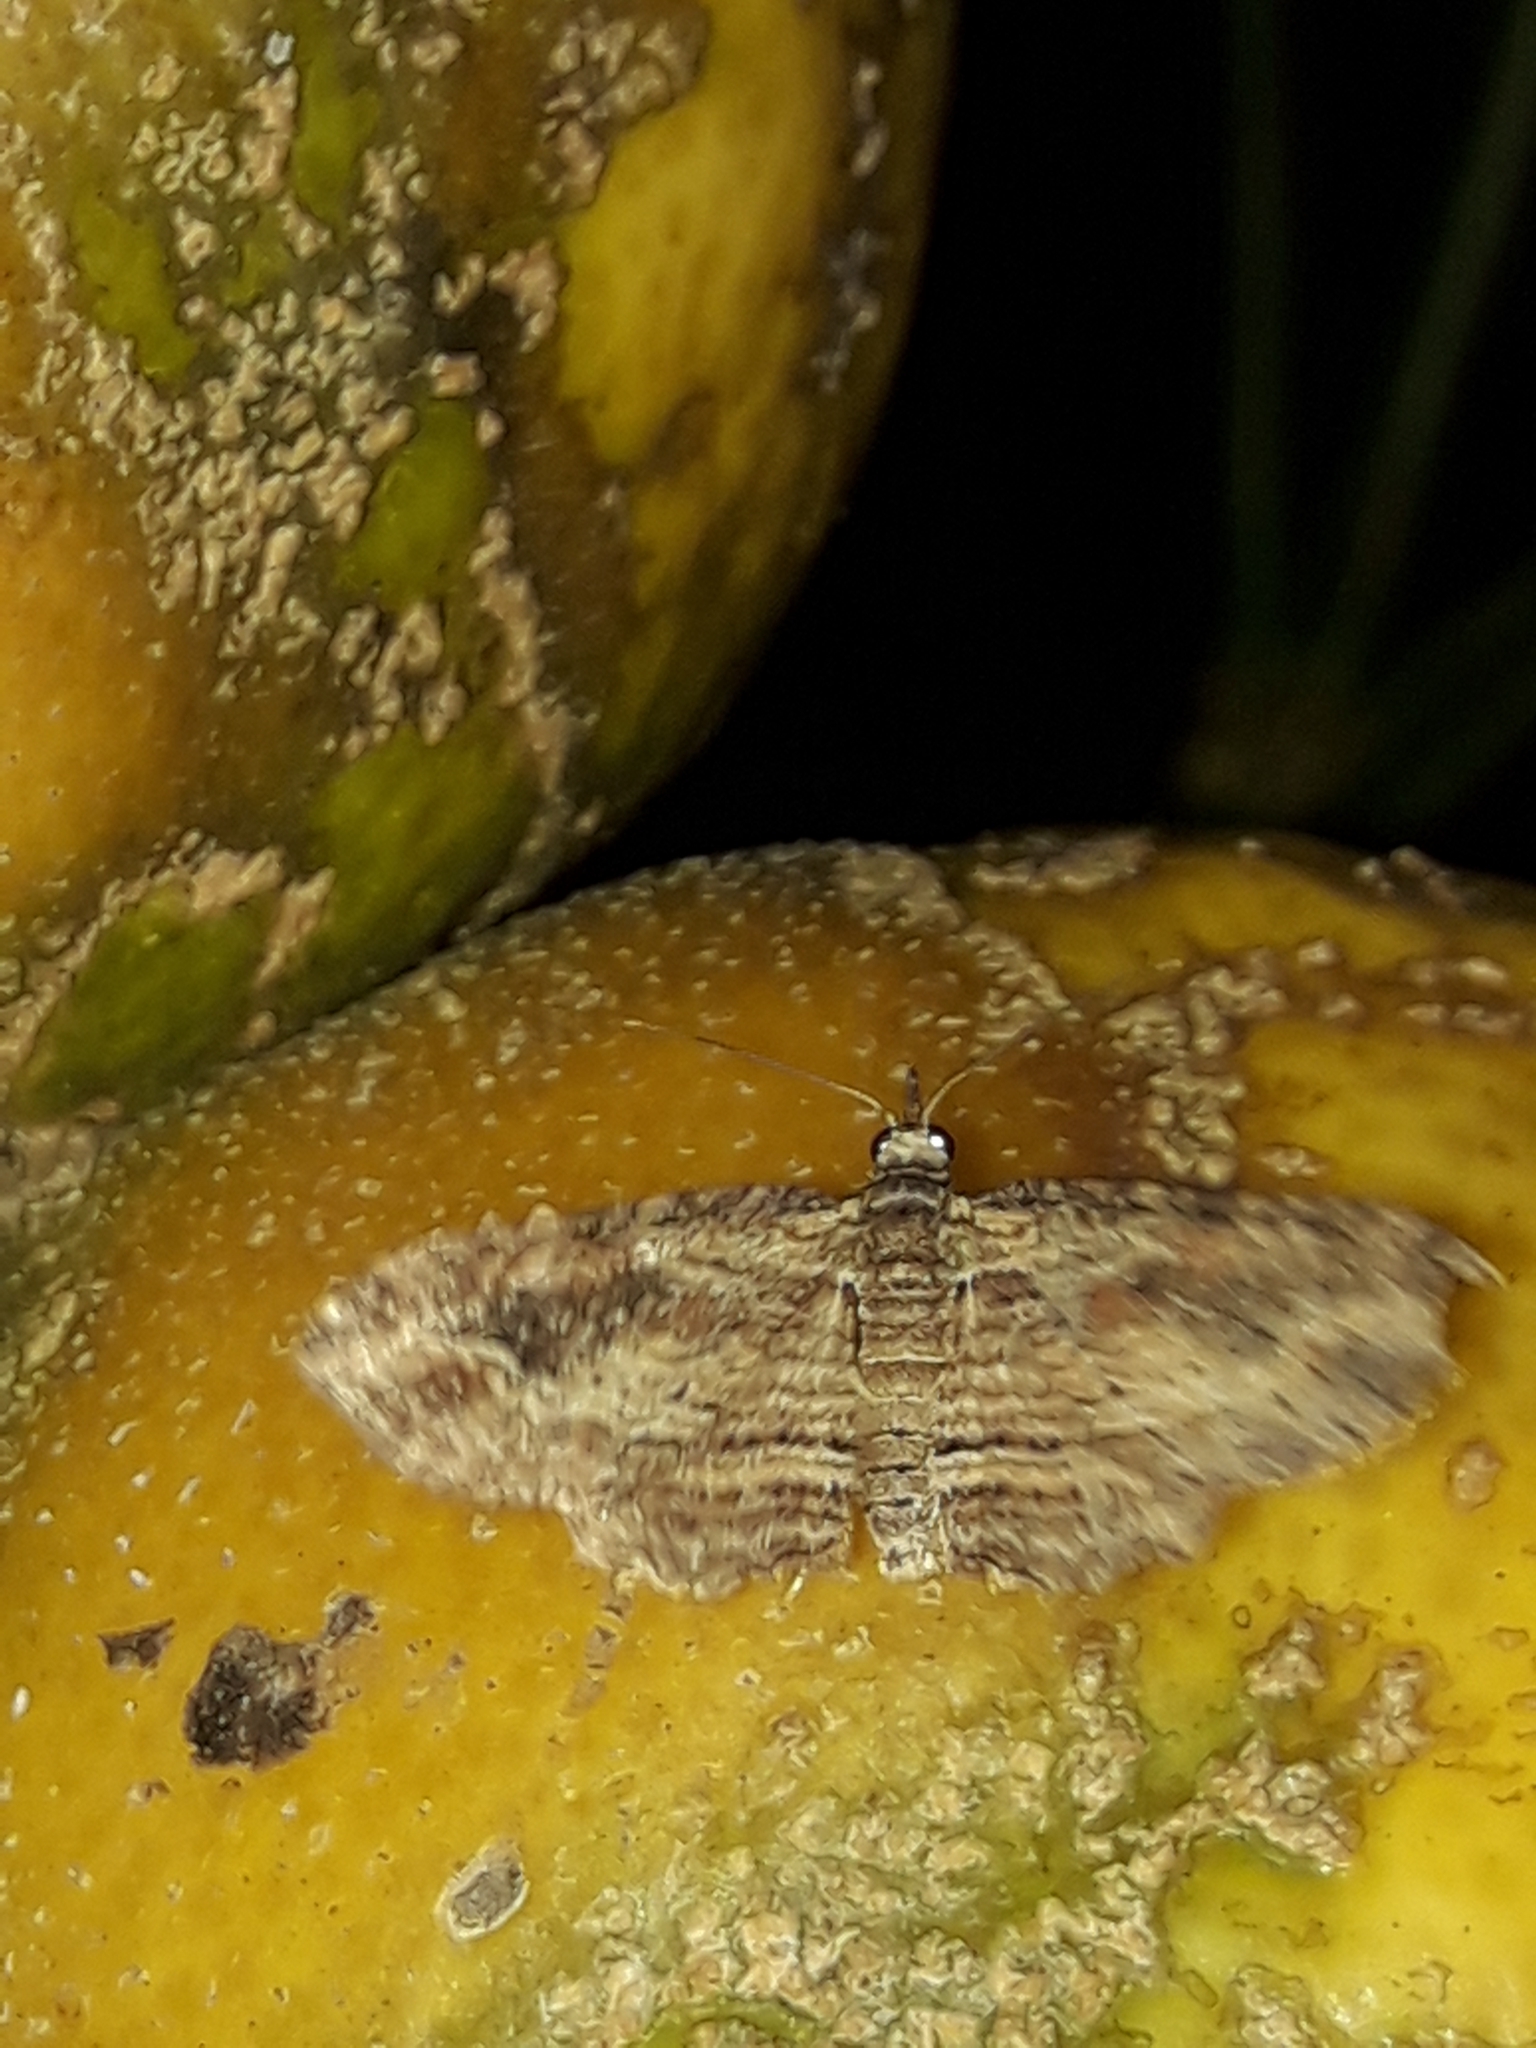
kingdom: Animalia
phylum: Arthropoda
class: Insecta
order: Lepidoptera
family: Geometridae
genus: Chloroclystis
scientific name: Chloroclystis filata
